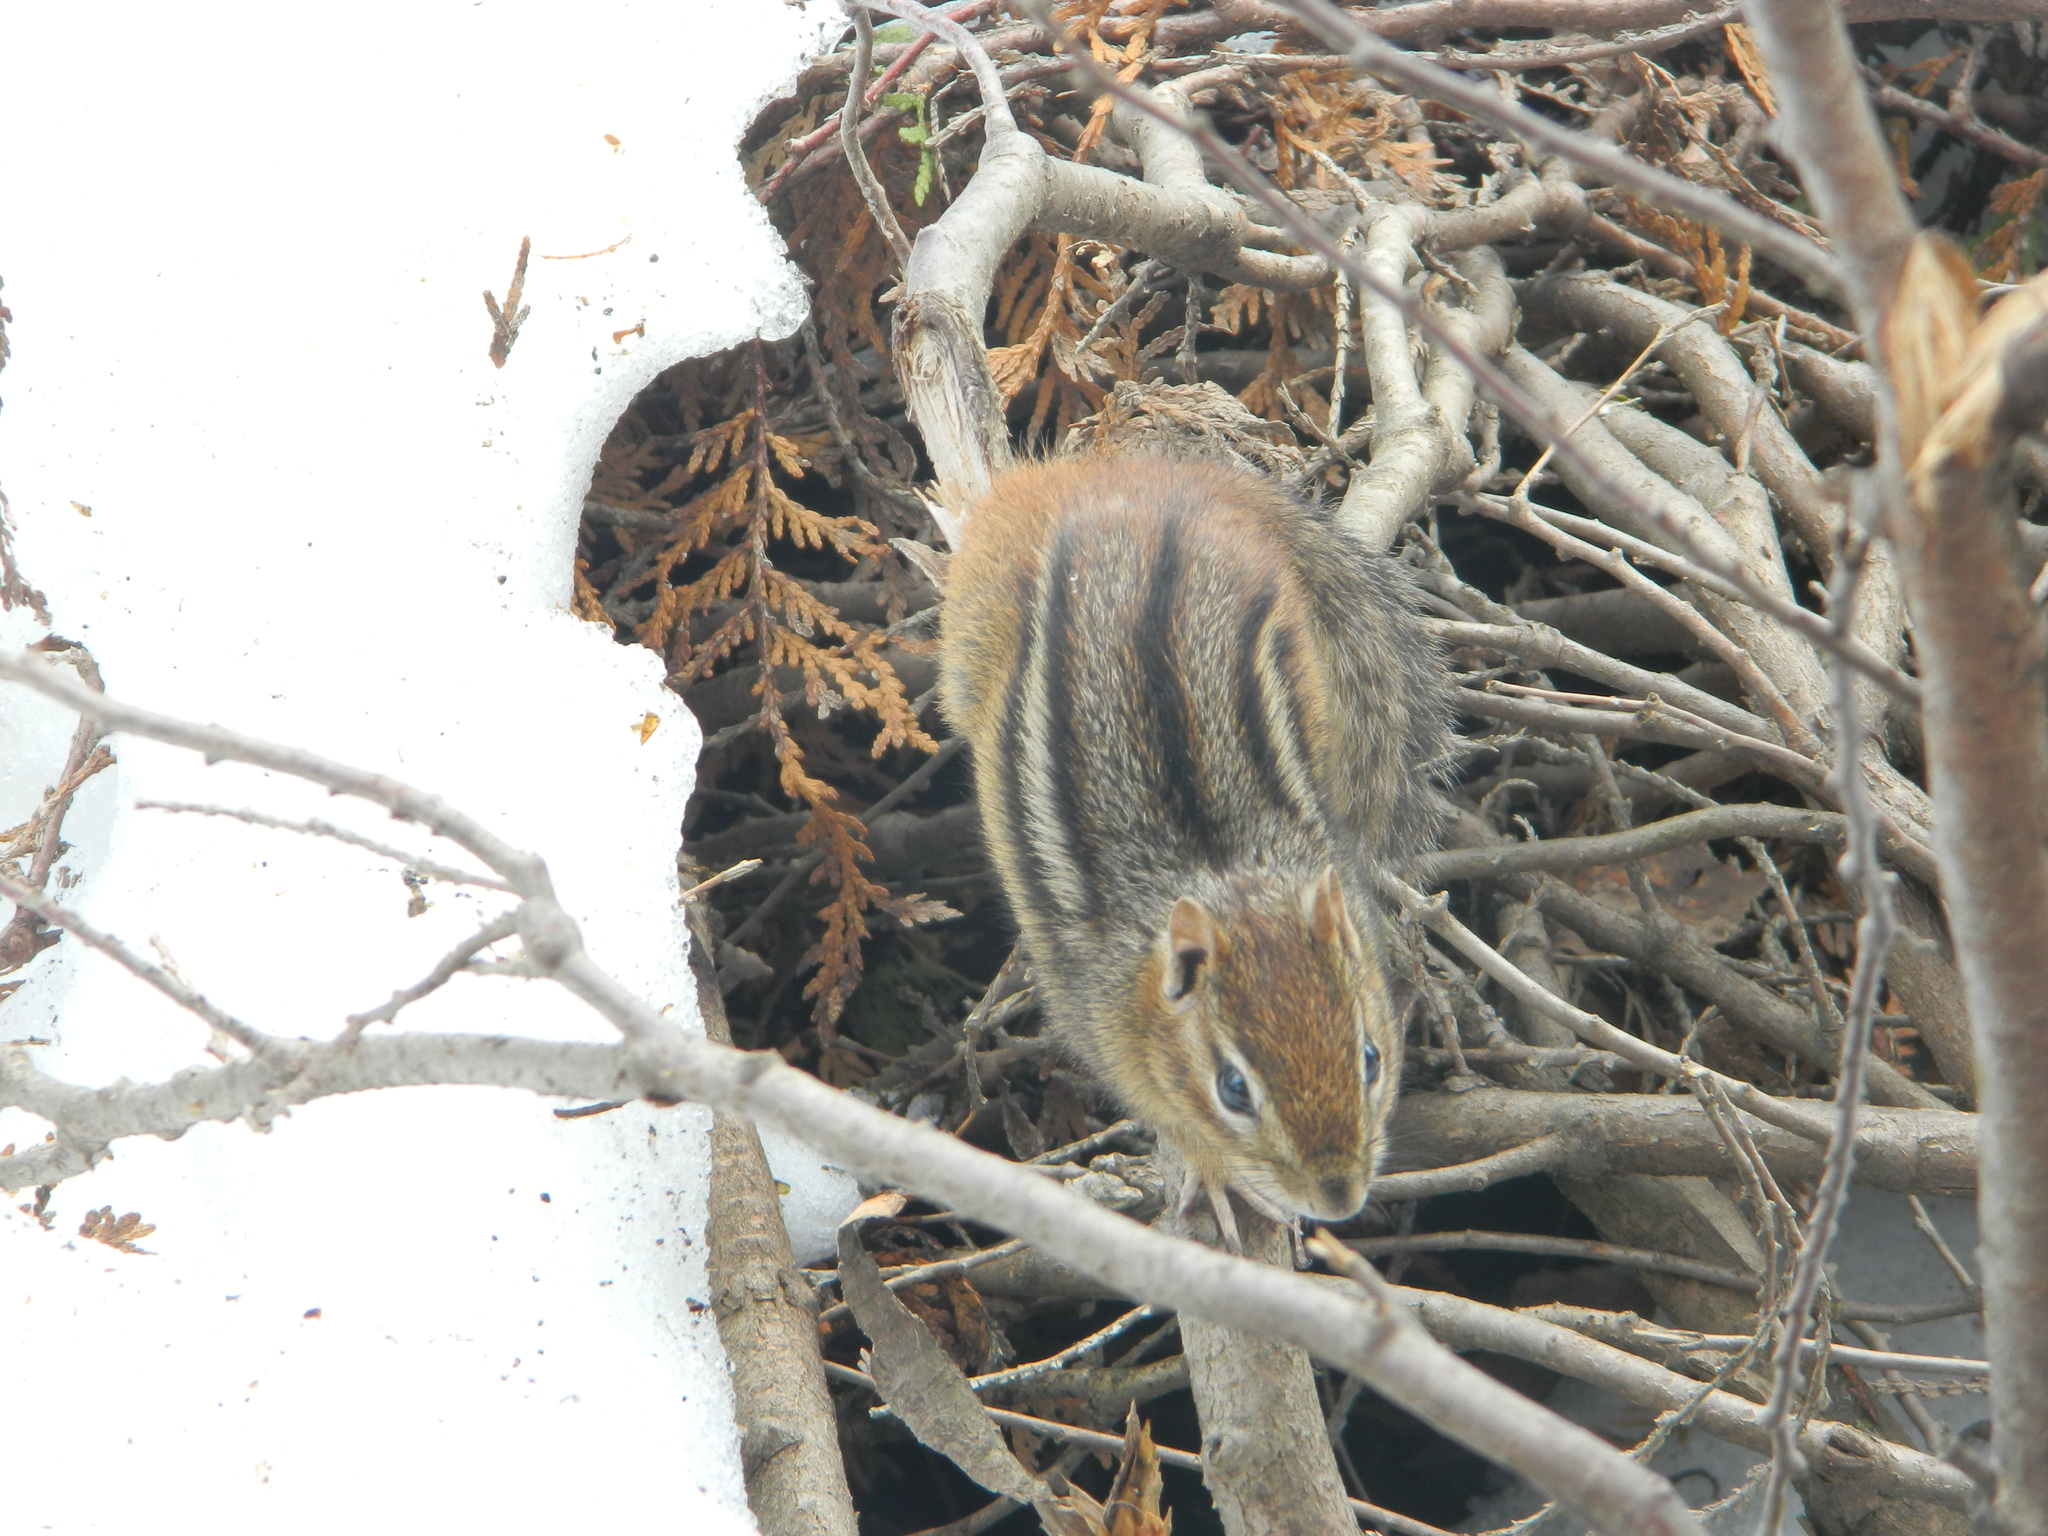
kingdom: Animalia
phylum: Chordata
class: Mammalia
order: Rodentia
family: Sciuridae
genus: Tamias
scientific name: Tamias striatus
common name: Eastern chipmunk
